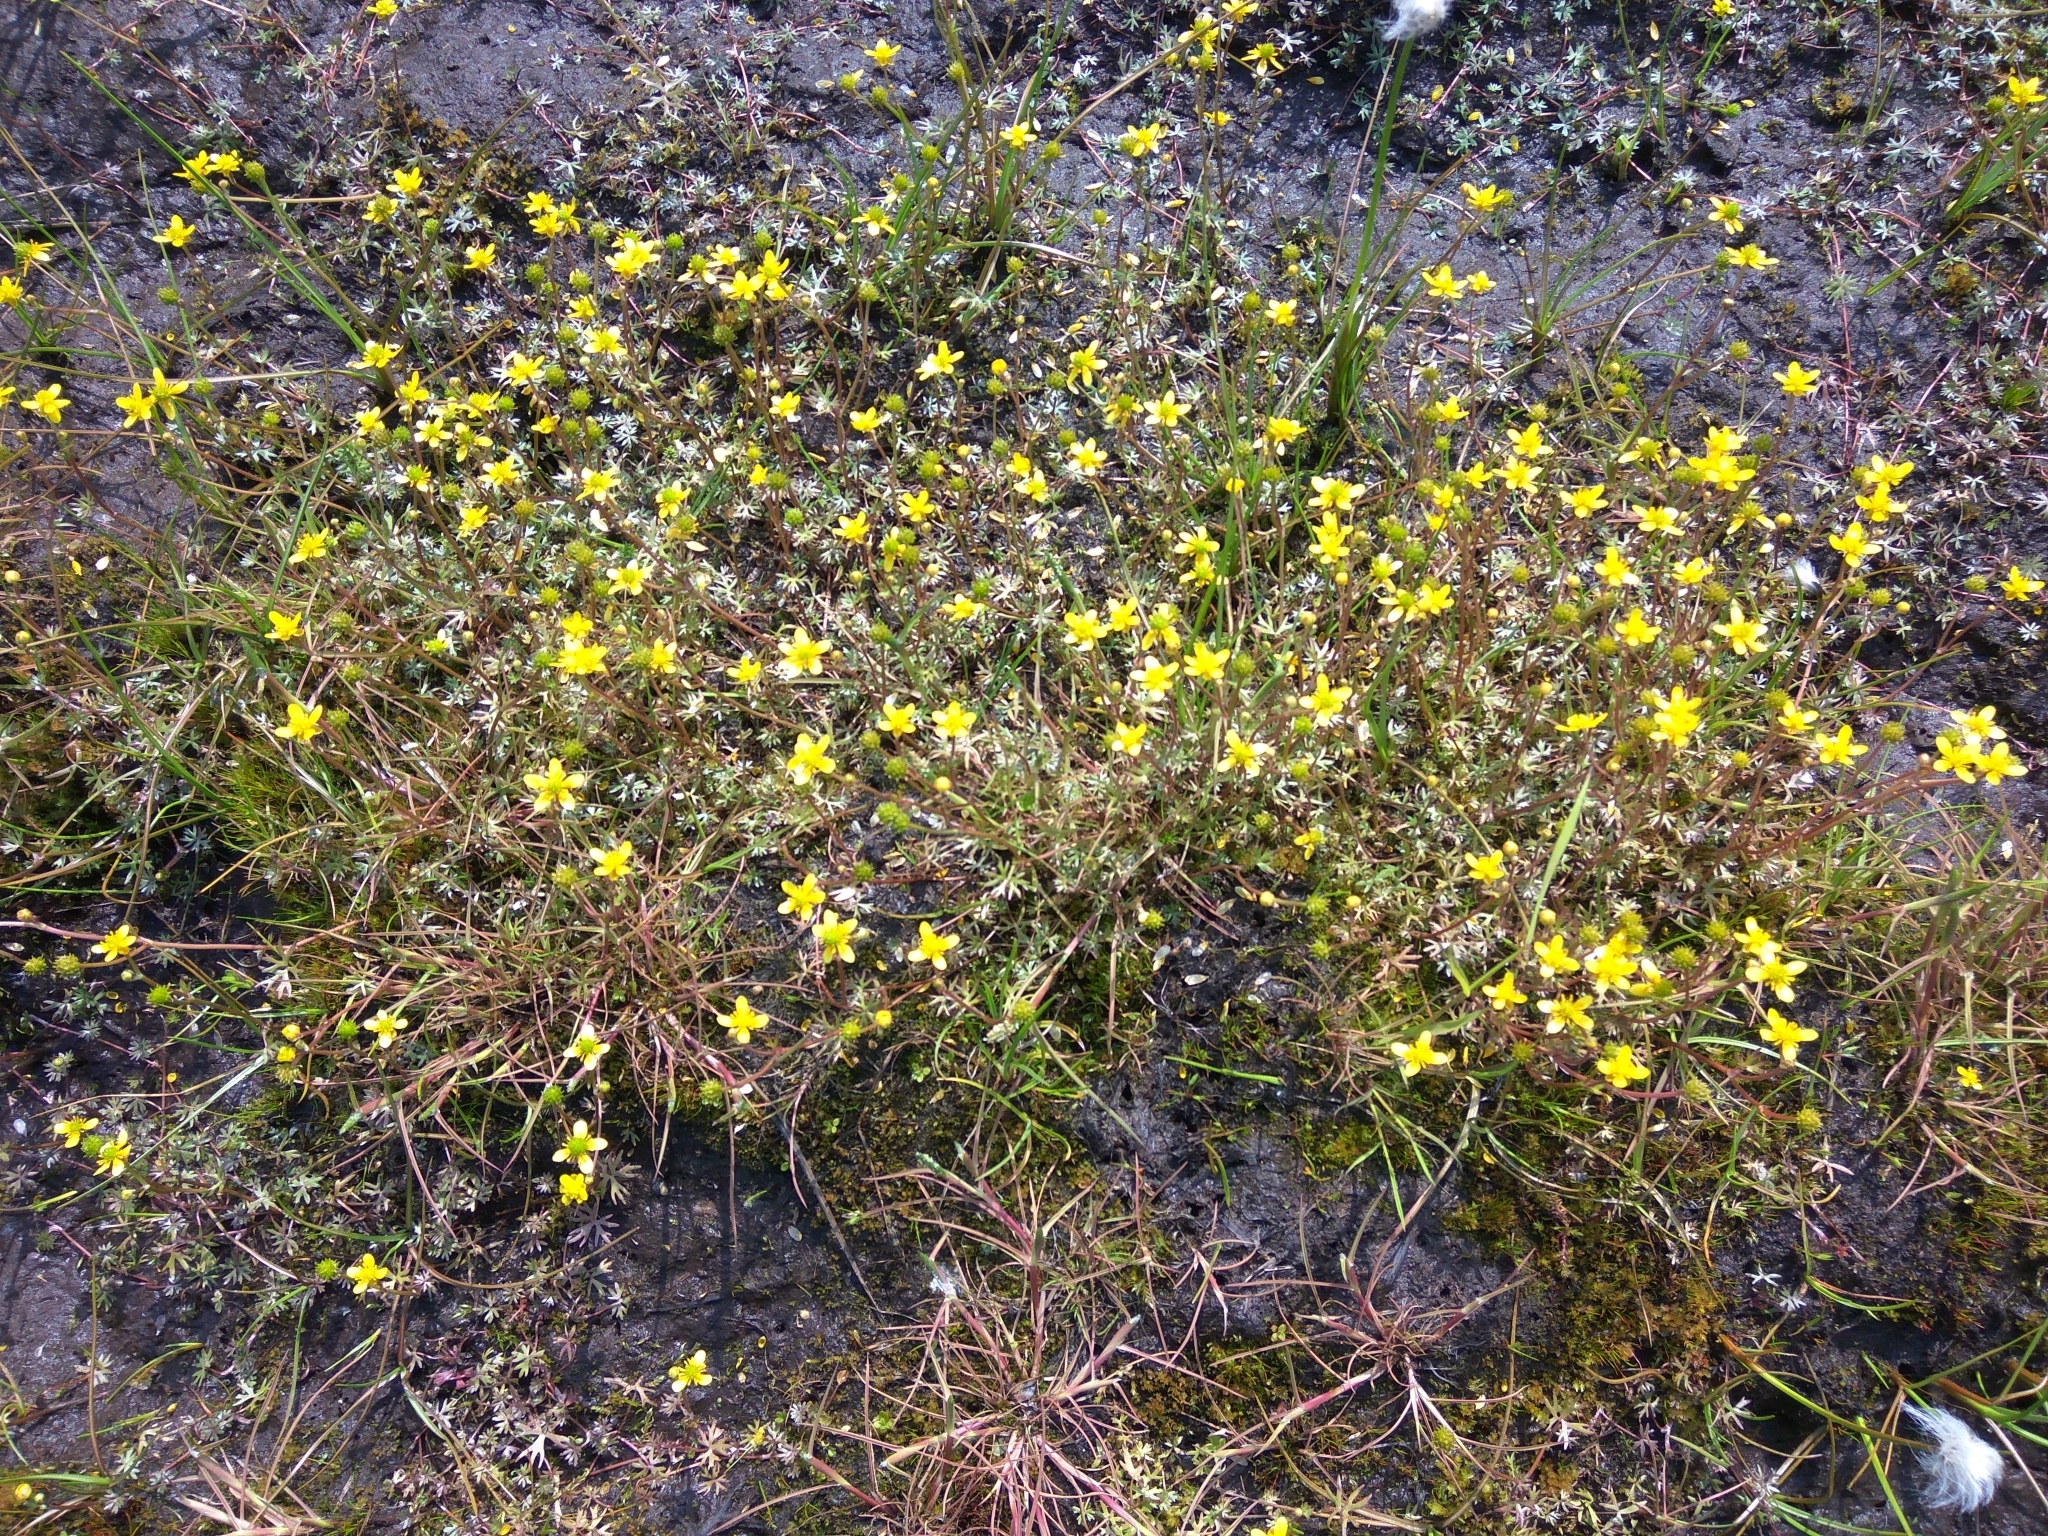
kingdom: Plantae
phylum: Tracheophyta
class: Magnoliopsida
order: Ranunculales
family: Ranunculaceae
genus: Ranunculus
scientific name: Ranunculus gmelinii
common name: Gmelin's buttercup
